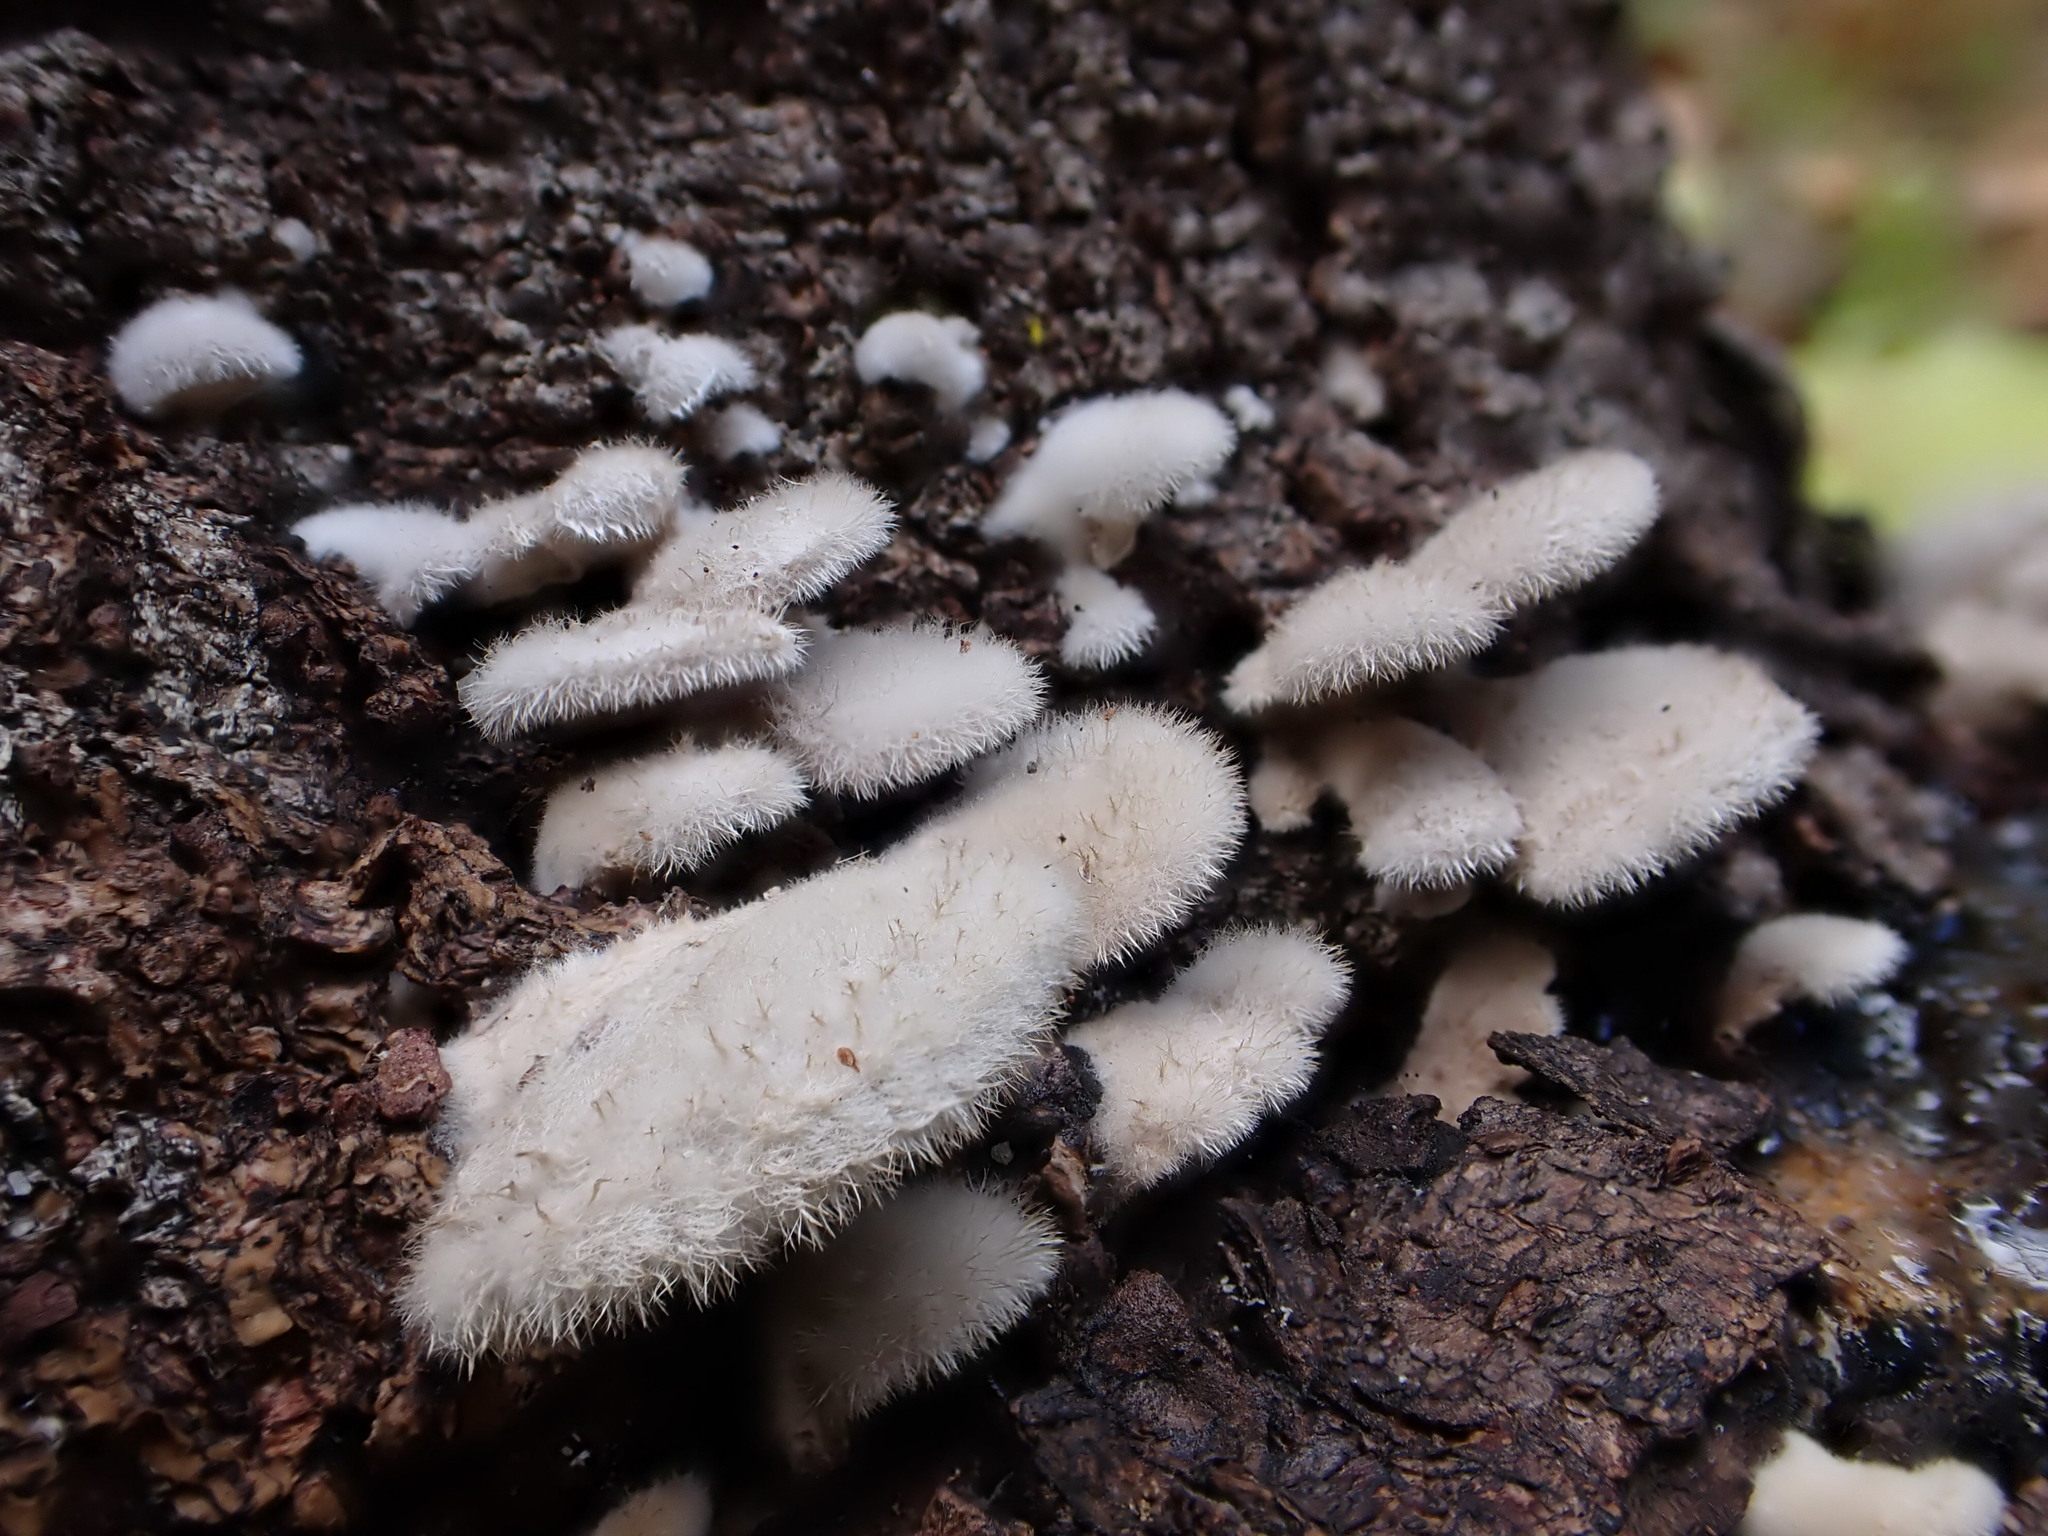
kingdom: Fungi
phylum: Basidiomycota
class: Agaricomycetes
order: Agaricales
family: Schizophyllaceae
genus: Schizophyllum
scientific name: Schizophyllum commune
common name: Common porecrust
